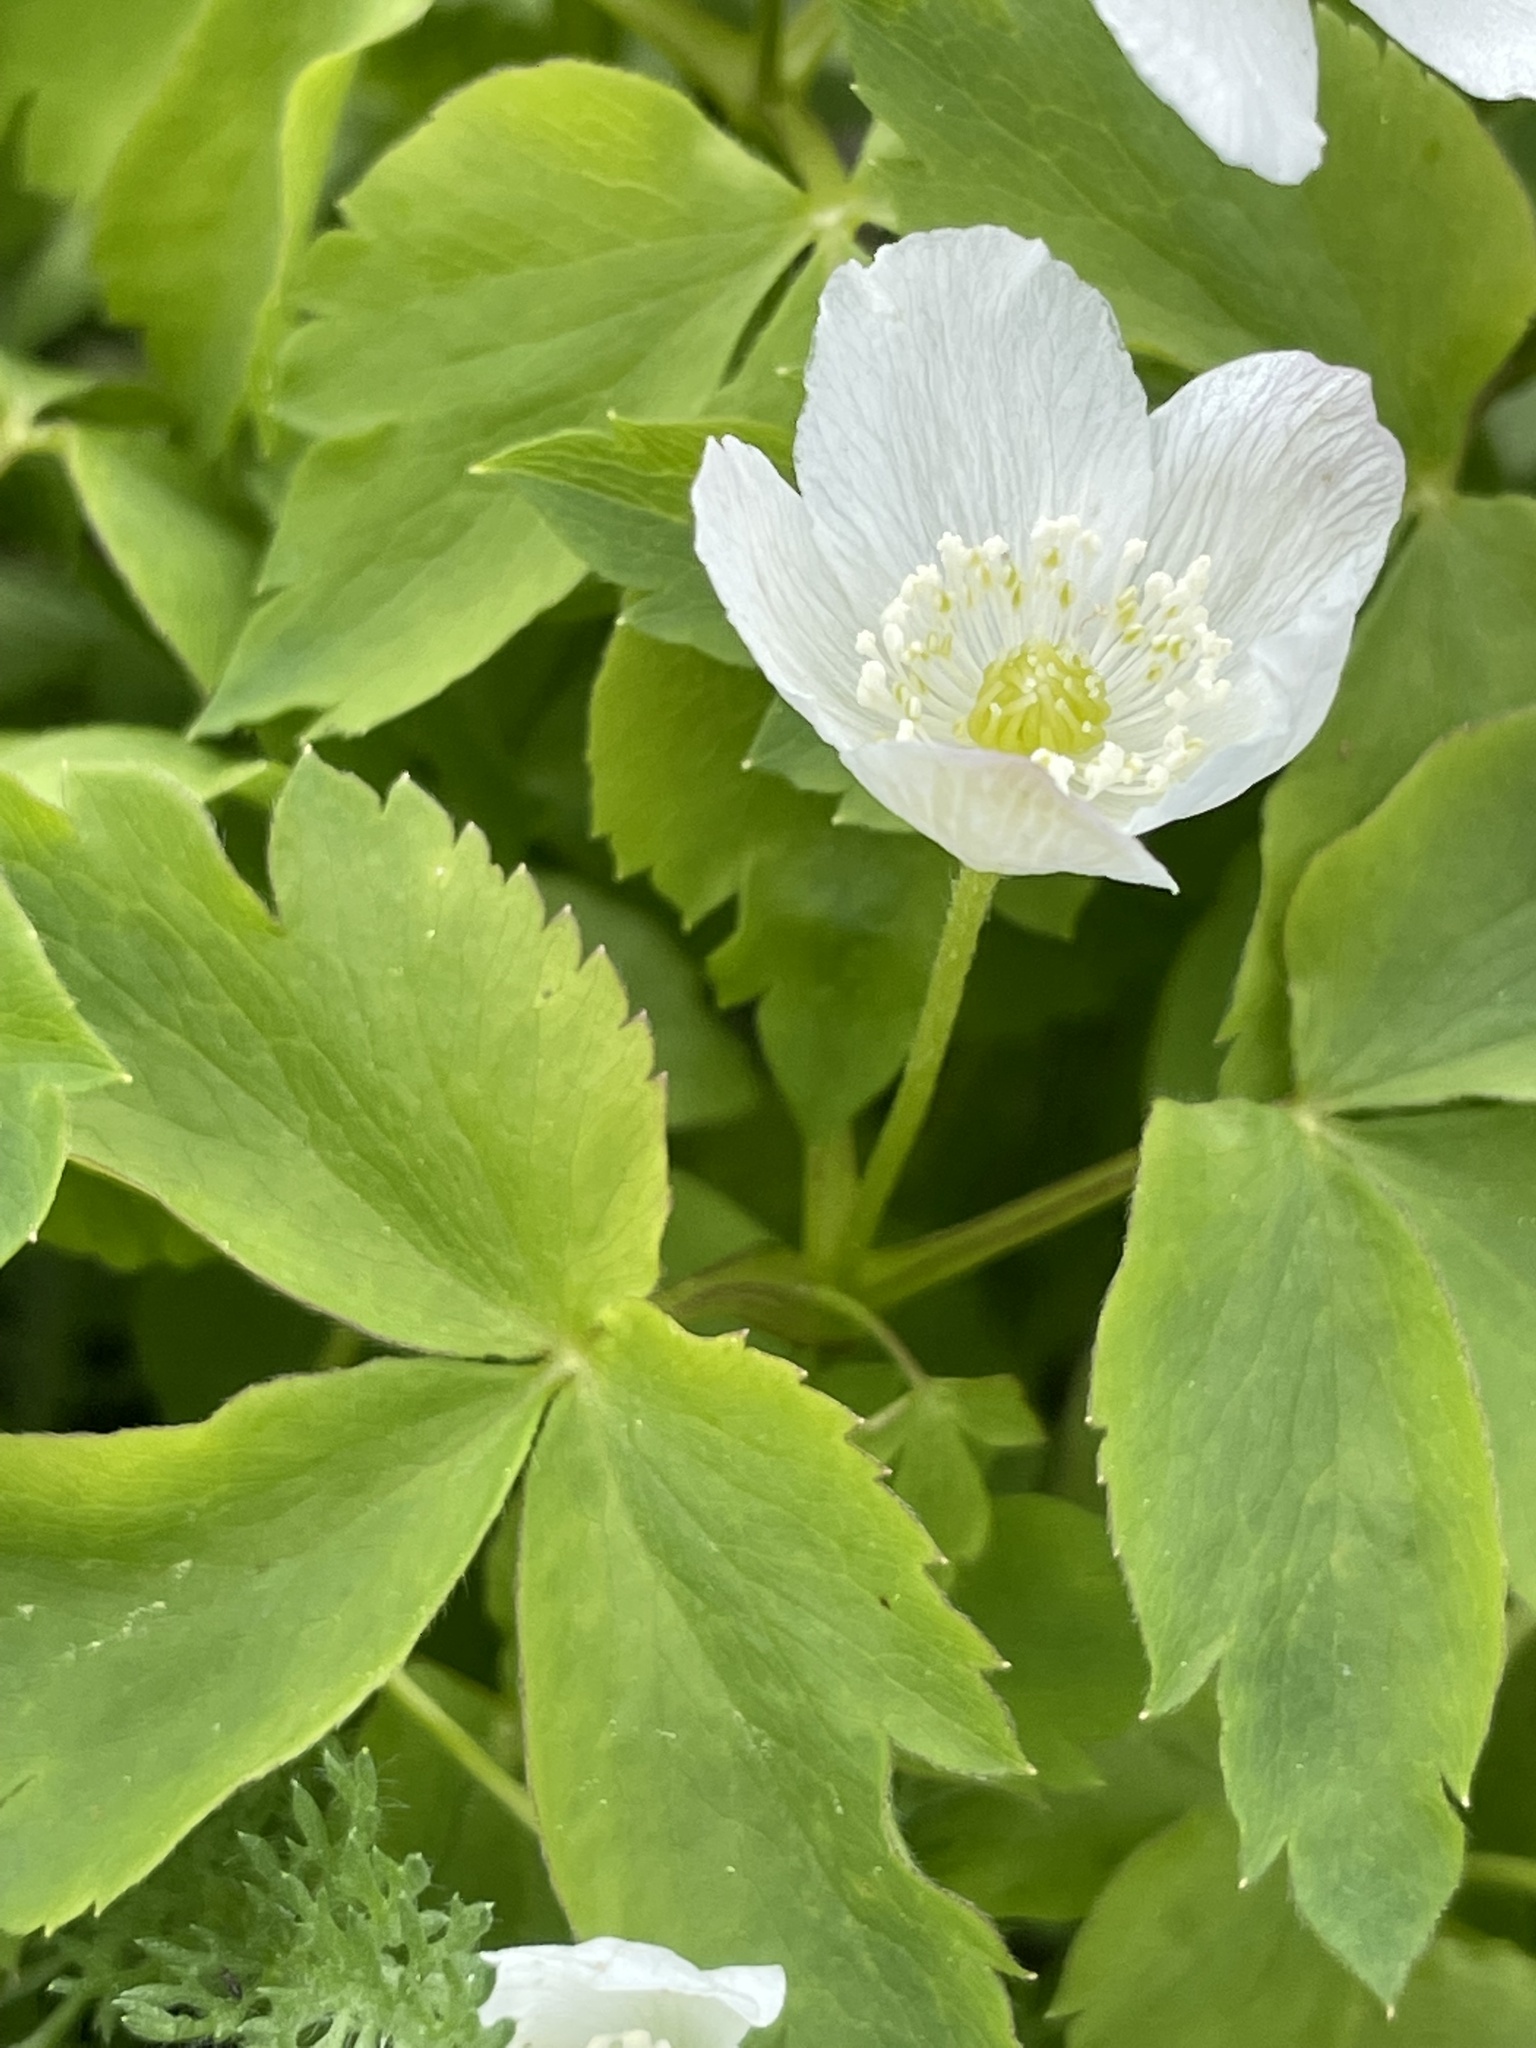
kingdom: Plantae
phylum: Tracheophyta
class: Magnoliopsida
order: Ranunculales
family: Ranunculaceae
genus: Anemone
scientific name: Anemone piperi
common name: Piper's anemone
